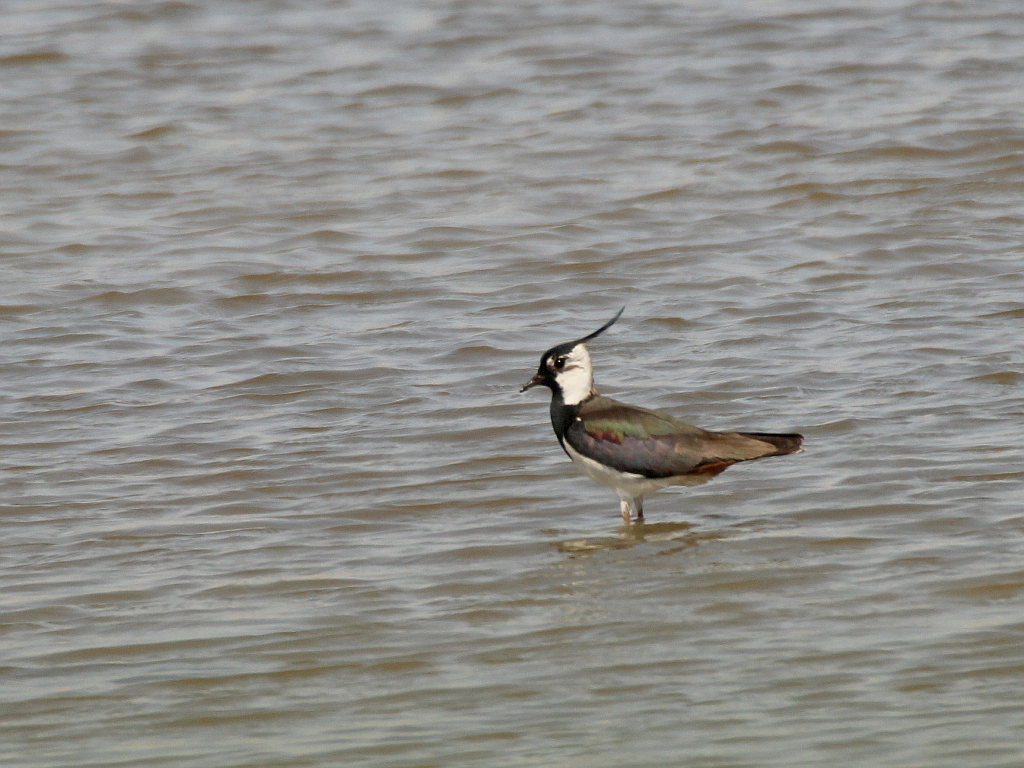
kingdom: Animalia
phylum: Chordata
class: Aves
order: Charadriiformes
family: Charadriidae
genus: Vanellus
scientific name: Vanellus vanellus
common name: Northern lapwing
